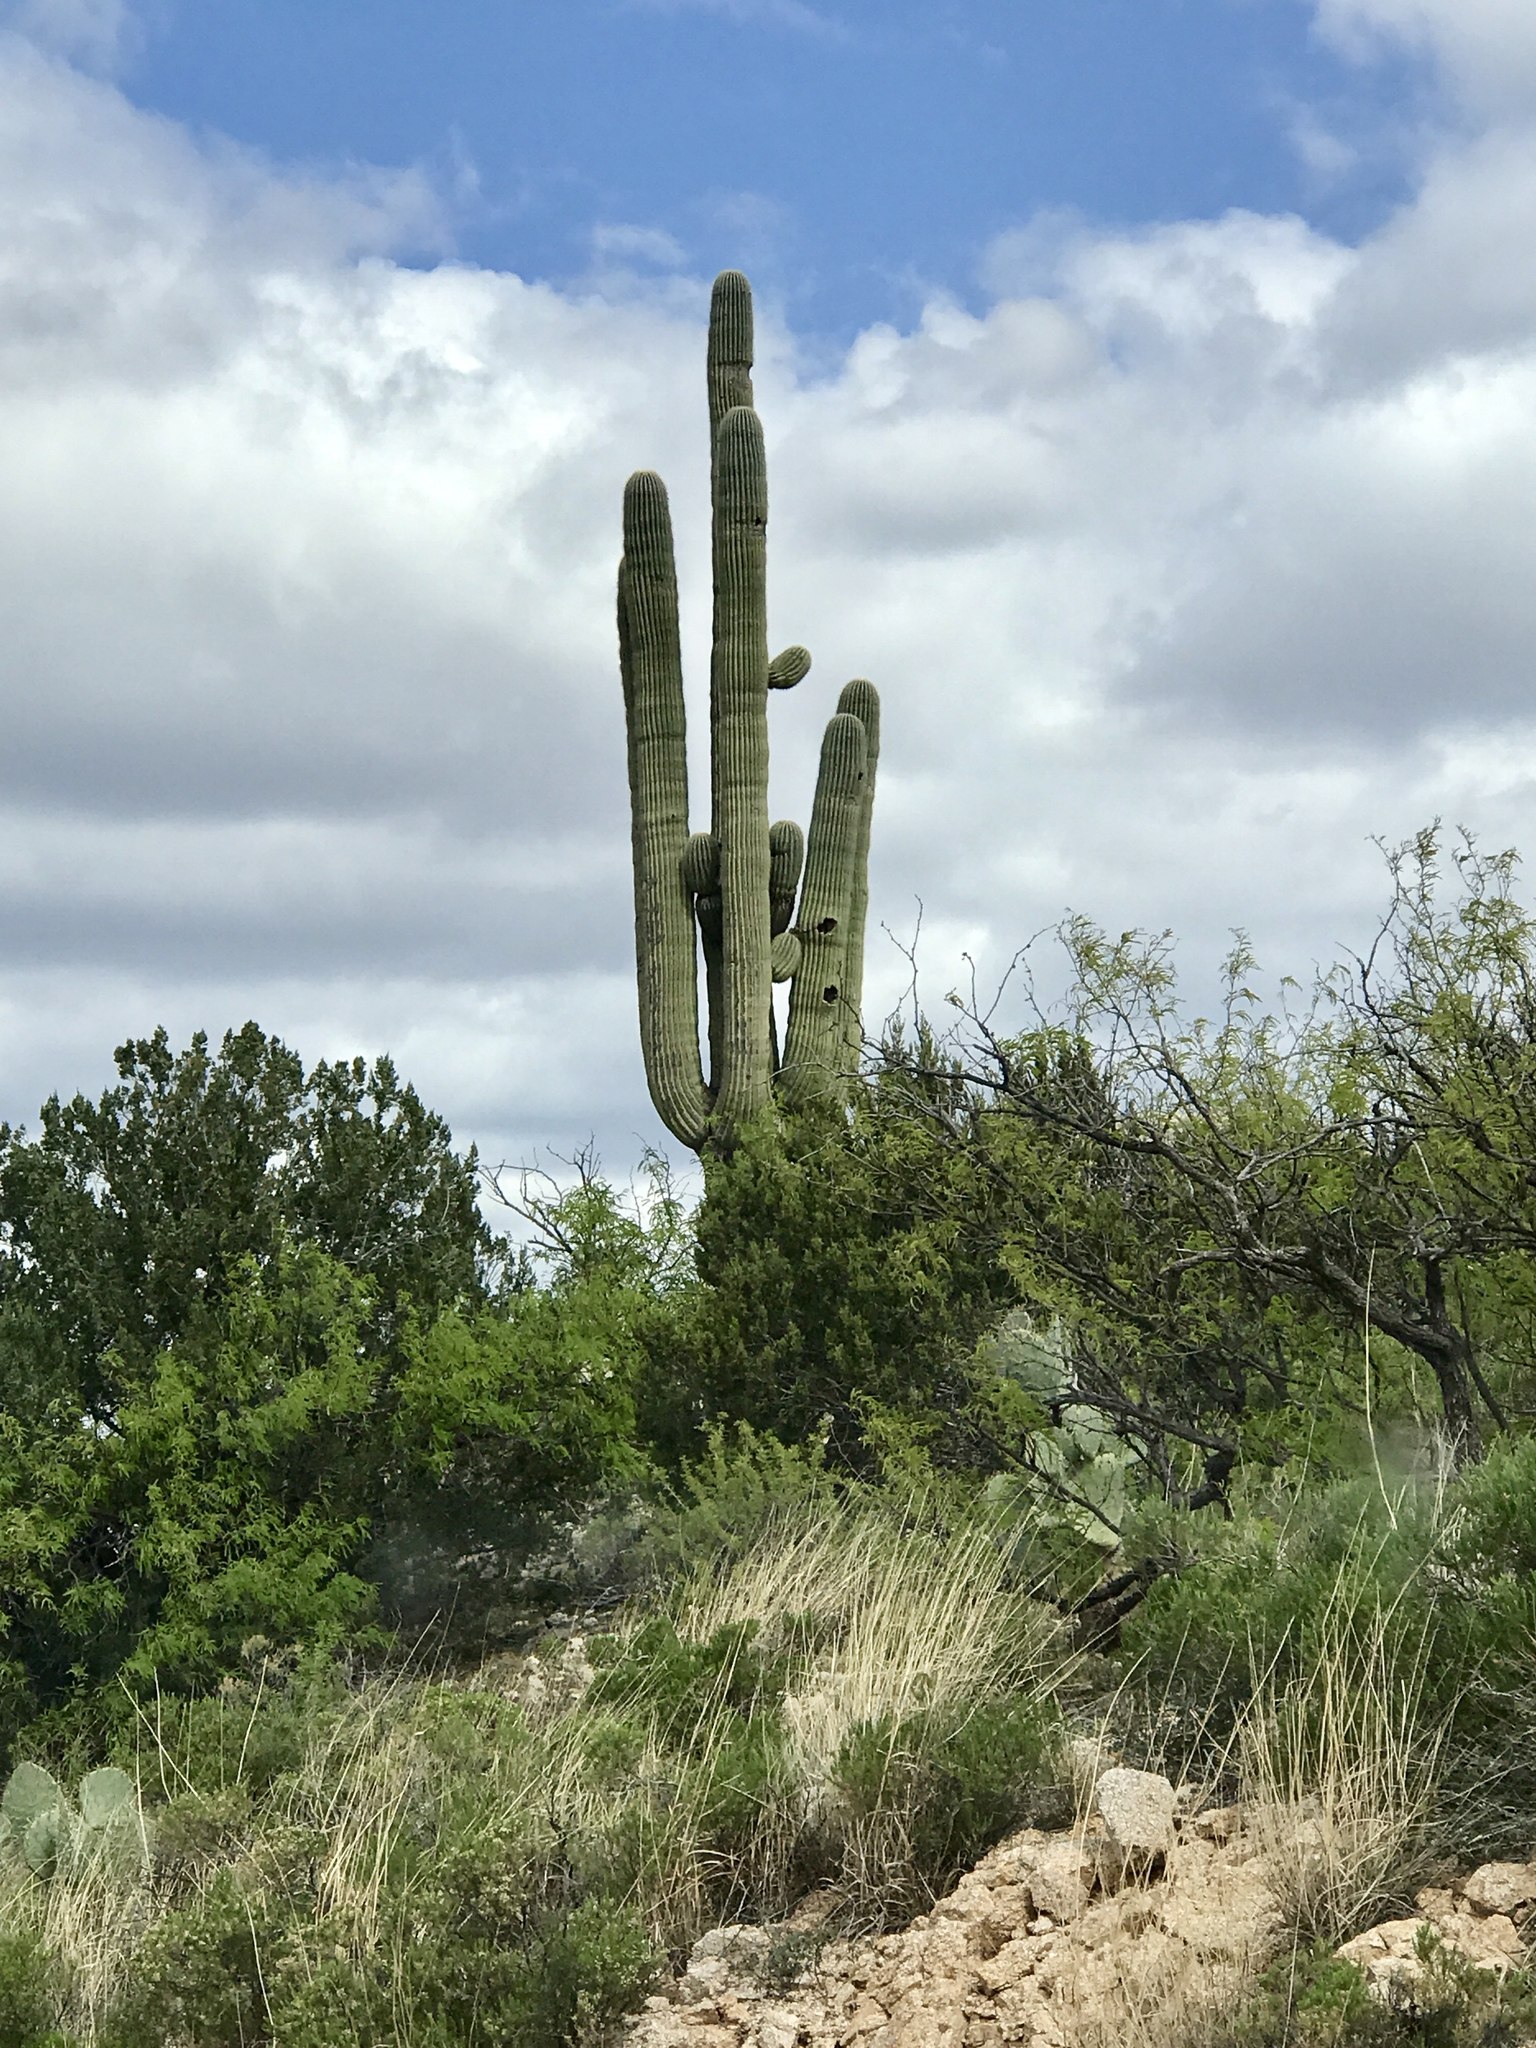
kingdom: Plantae
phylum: Tracheophyta
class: Magnoliopsida
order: Caryophyllales
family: Cactaceae
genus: Carnegiea
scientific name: Carnegiea gigantea
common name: Saguaro
